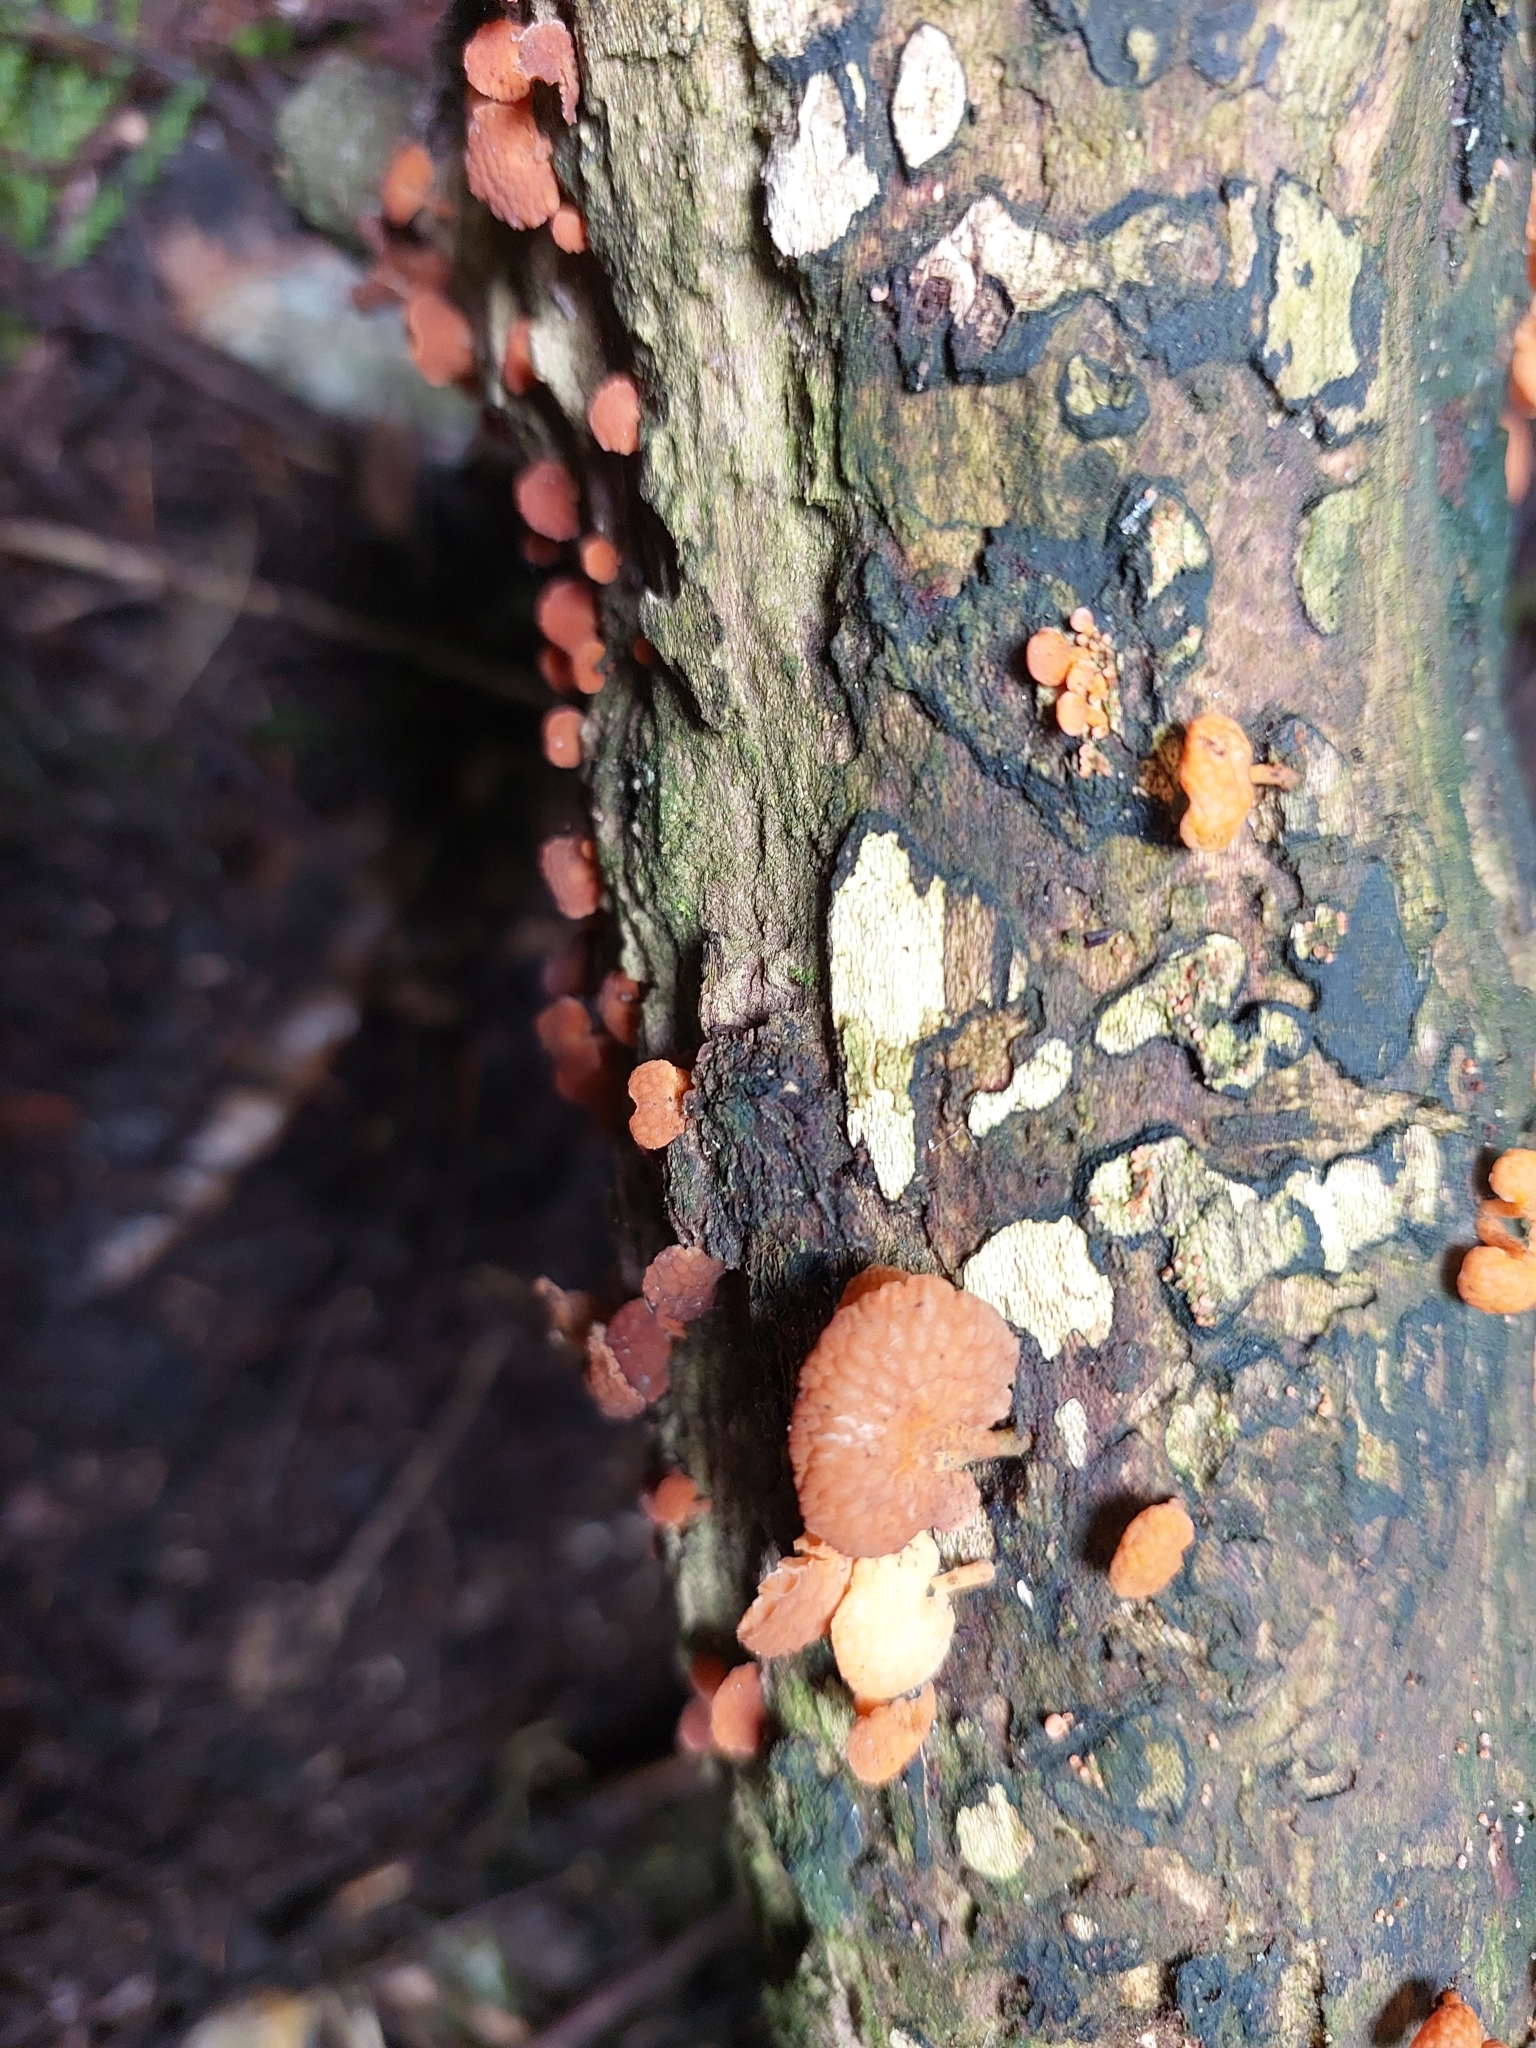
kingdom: Fungi
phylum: Basidiomycota
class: Agaricomycetes
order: Agaricales
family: Mycenaceae
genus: Favolaschia
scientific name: Favolaschia claudopus
